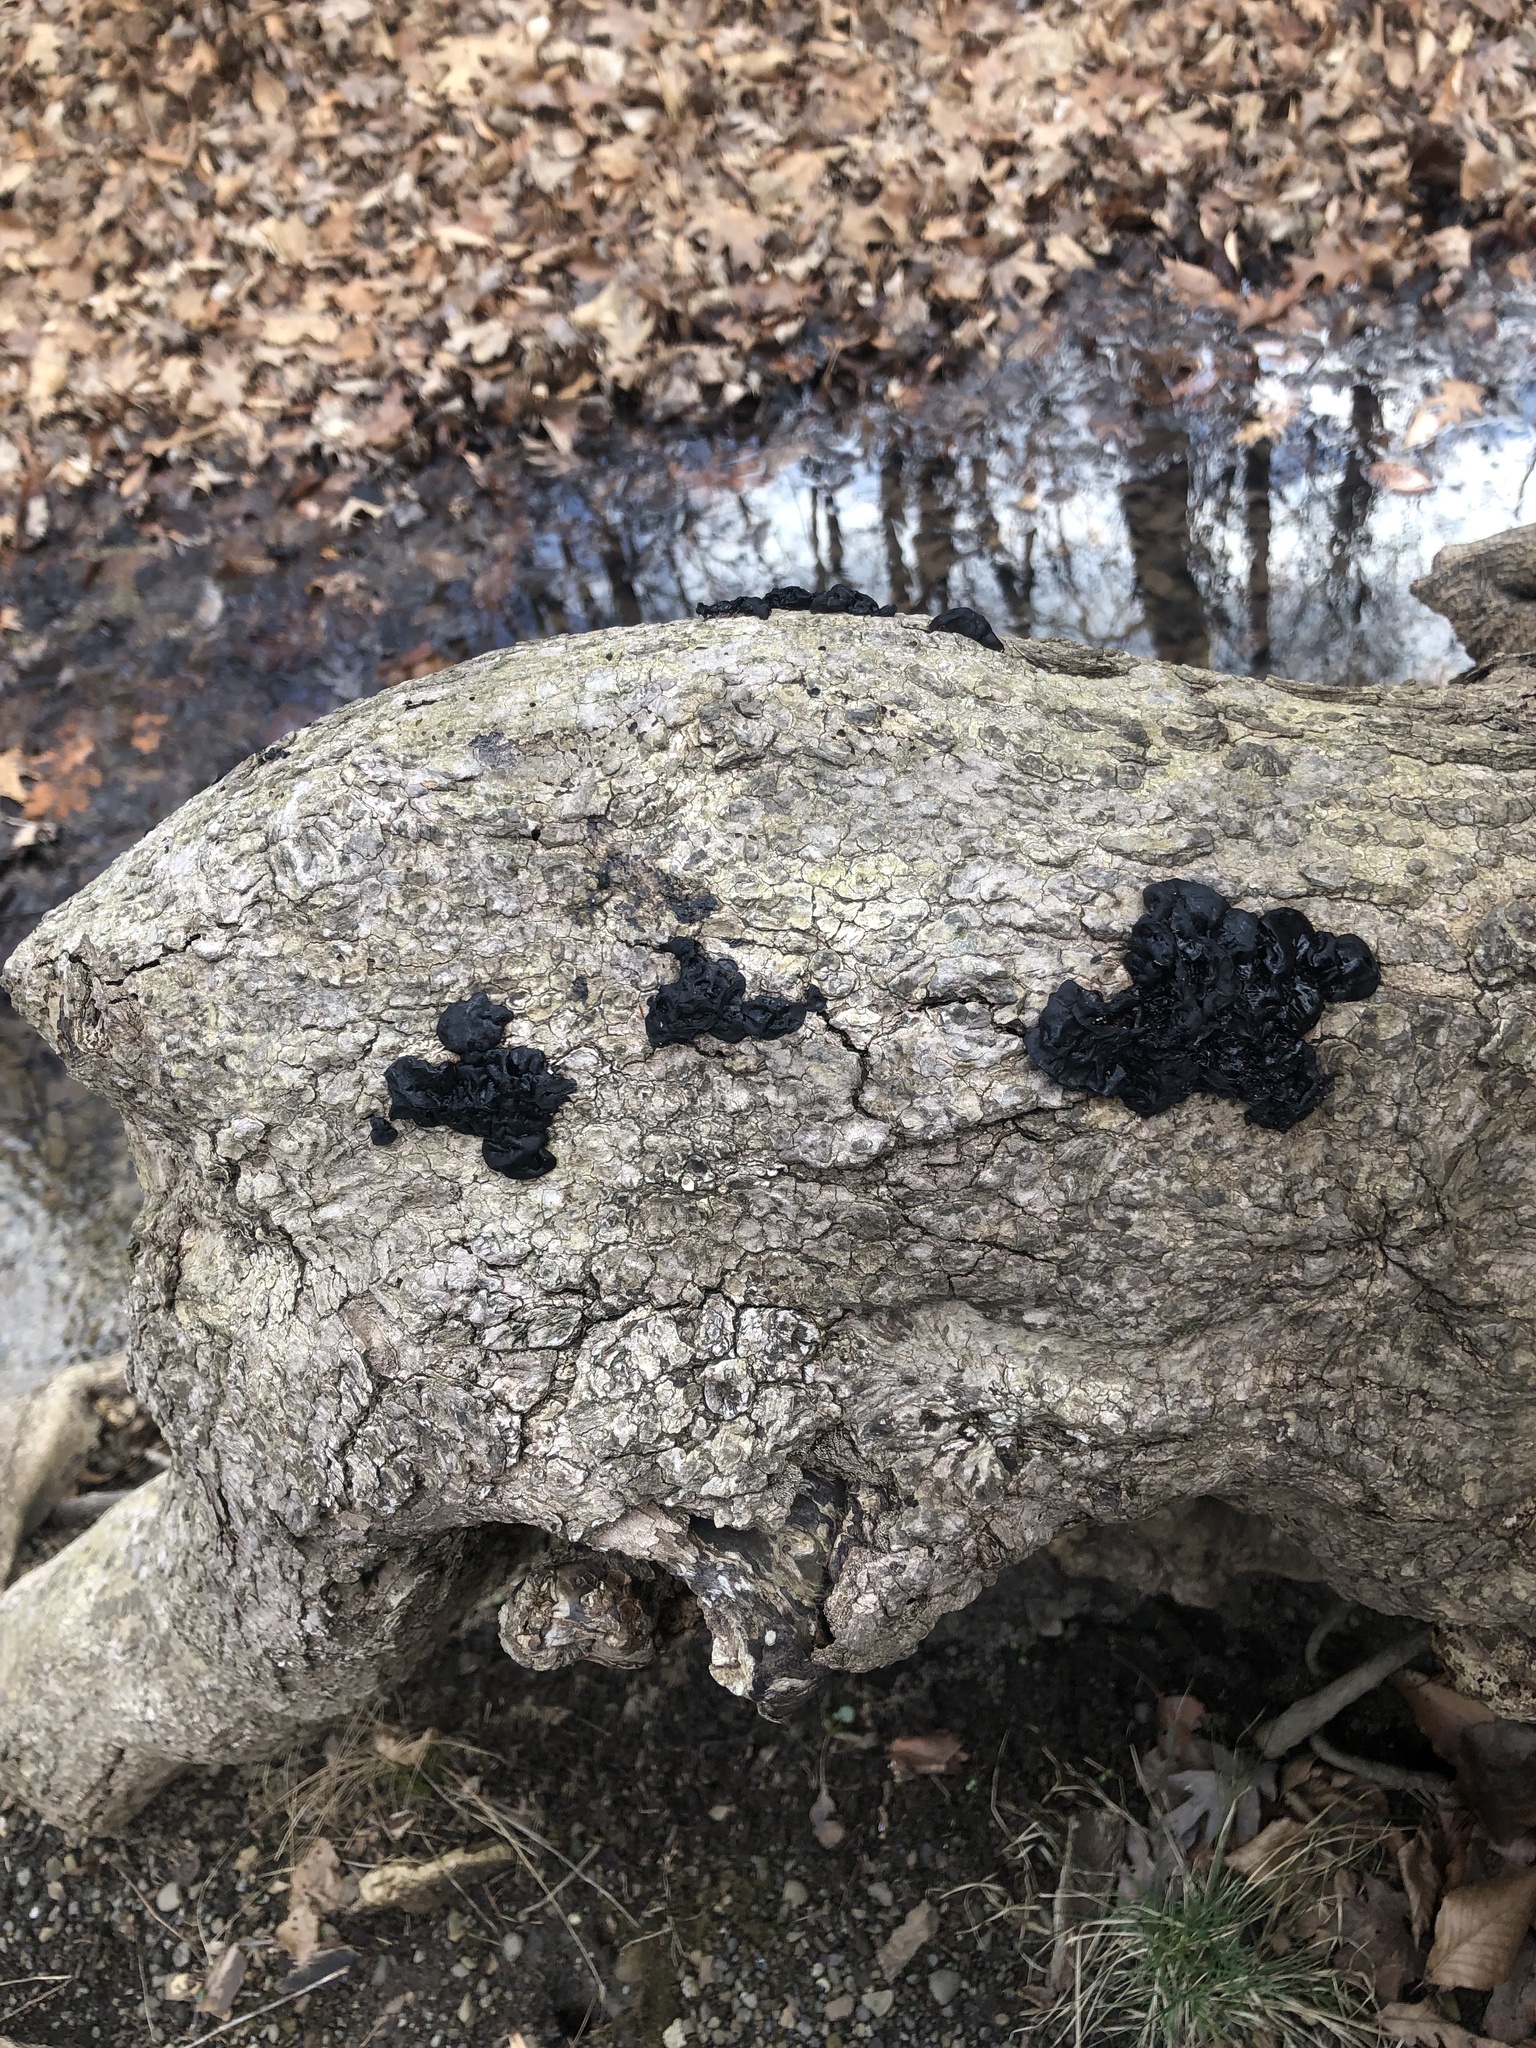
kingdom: Fungi
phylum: Basidiomycota
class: Agaricomycetes
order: Auriculariales
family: Auriculariaceae
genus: Exidia
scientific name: Exidia glandulosa
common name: Witches' butter
